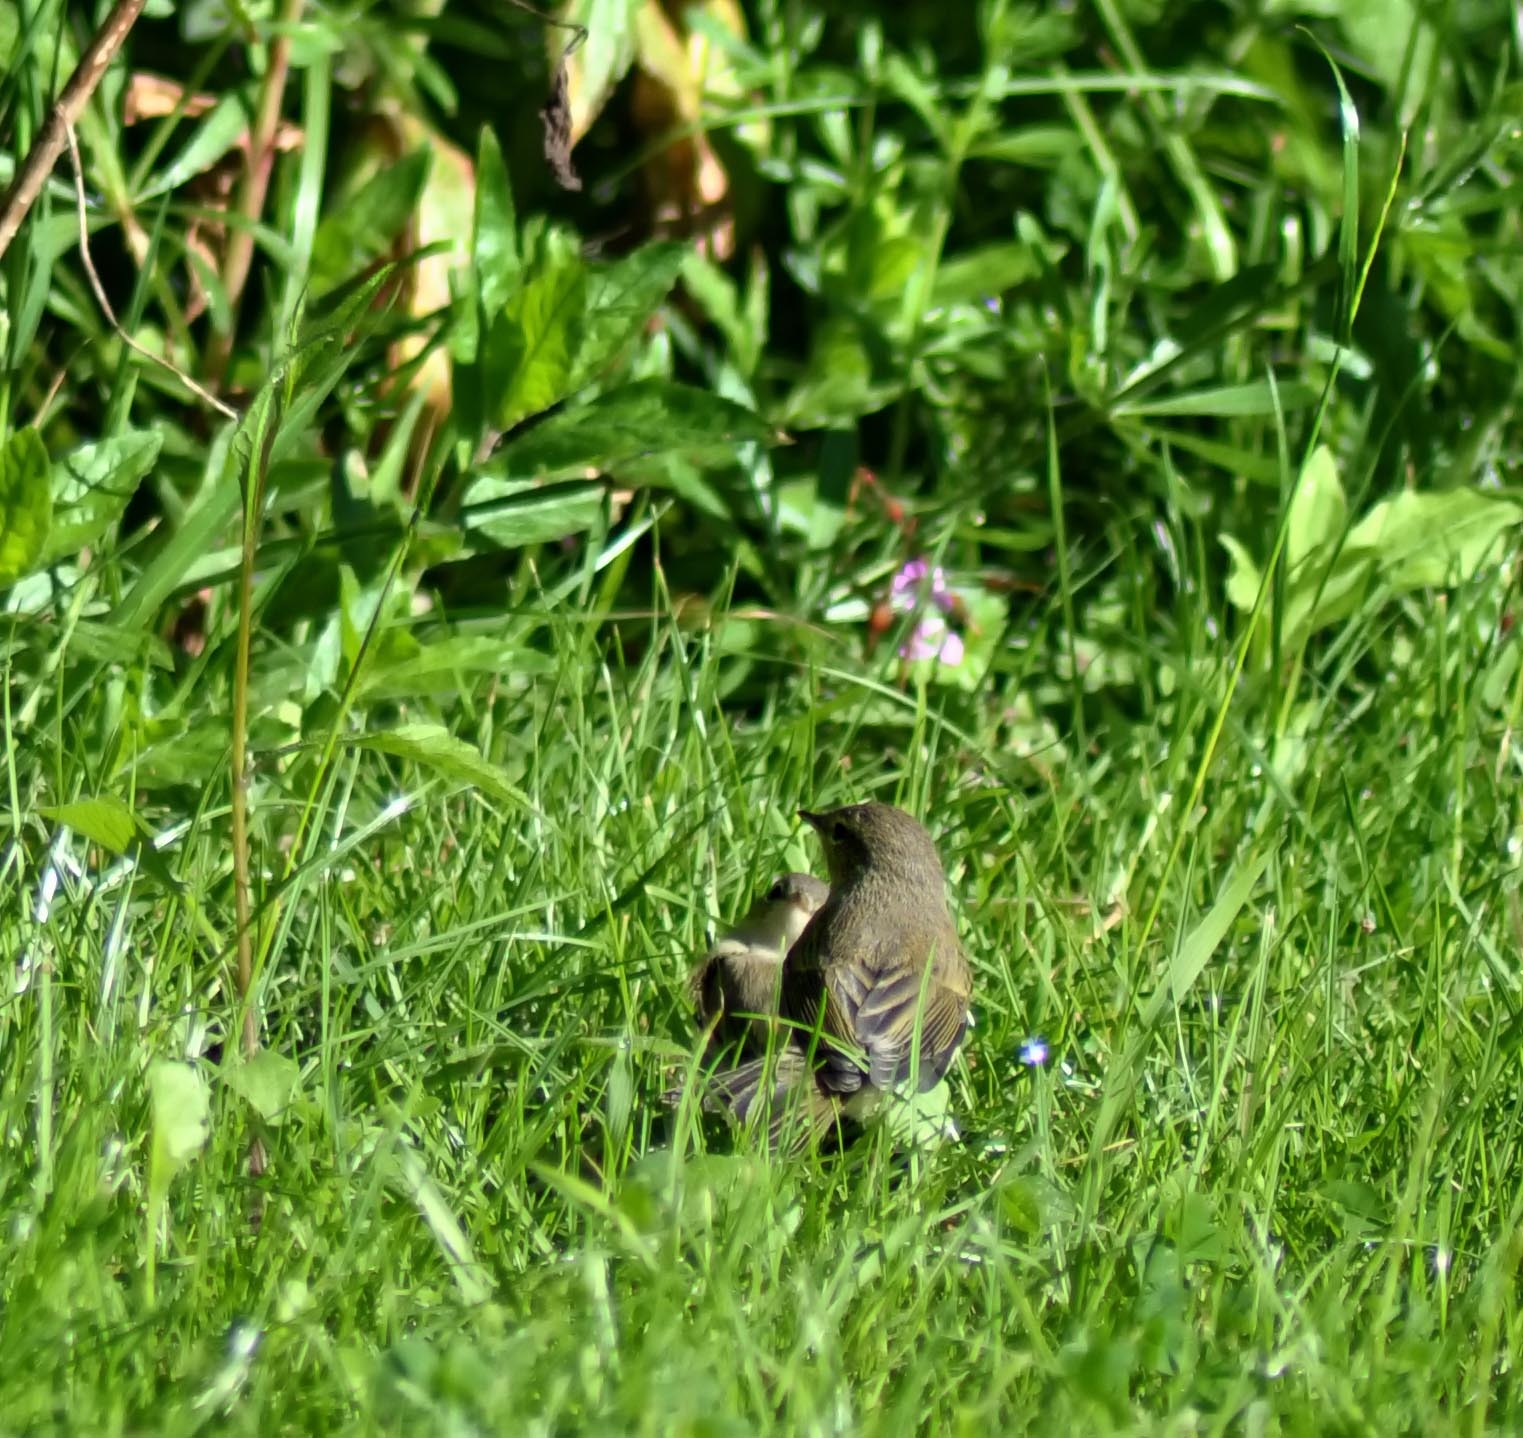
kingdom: Animalia
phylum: Chordata
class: Aves
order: Passeriformes
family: Phylloscopidae
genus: Phylloscopus
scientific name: Phylloscopus collybita
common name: Common chiffchaff
